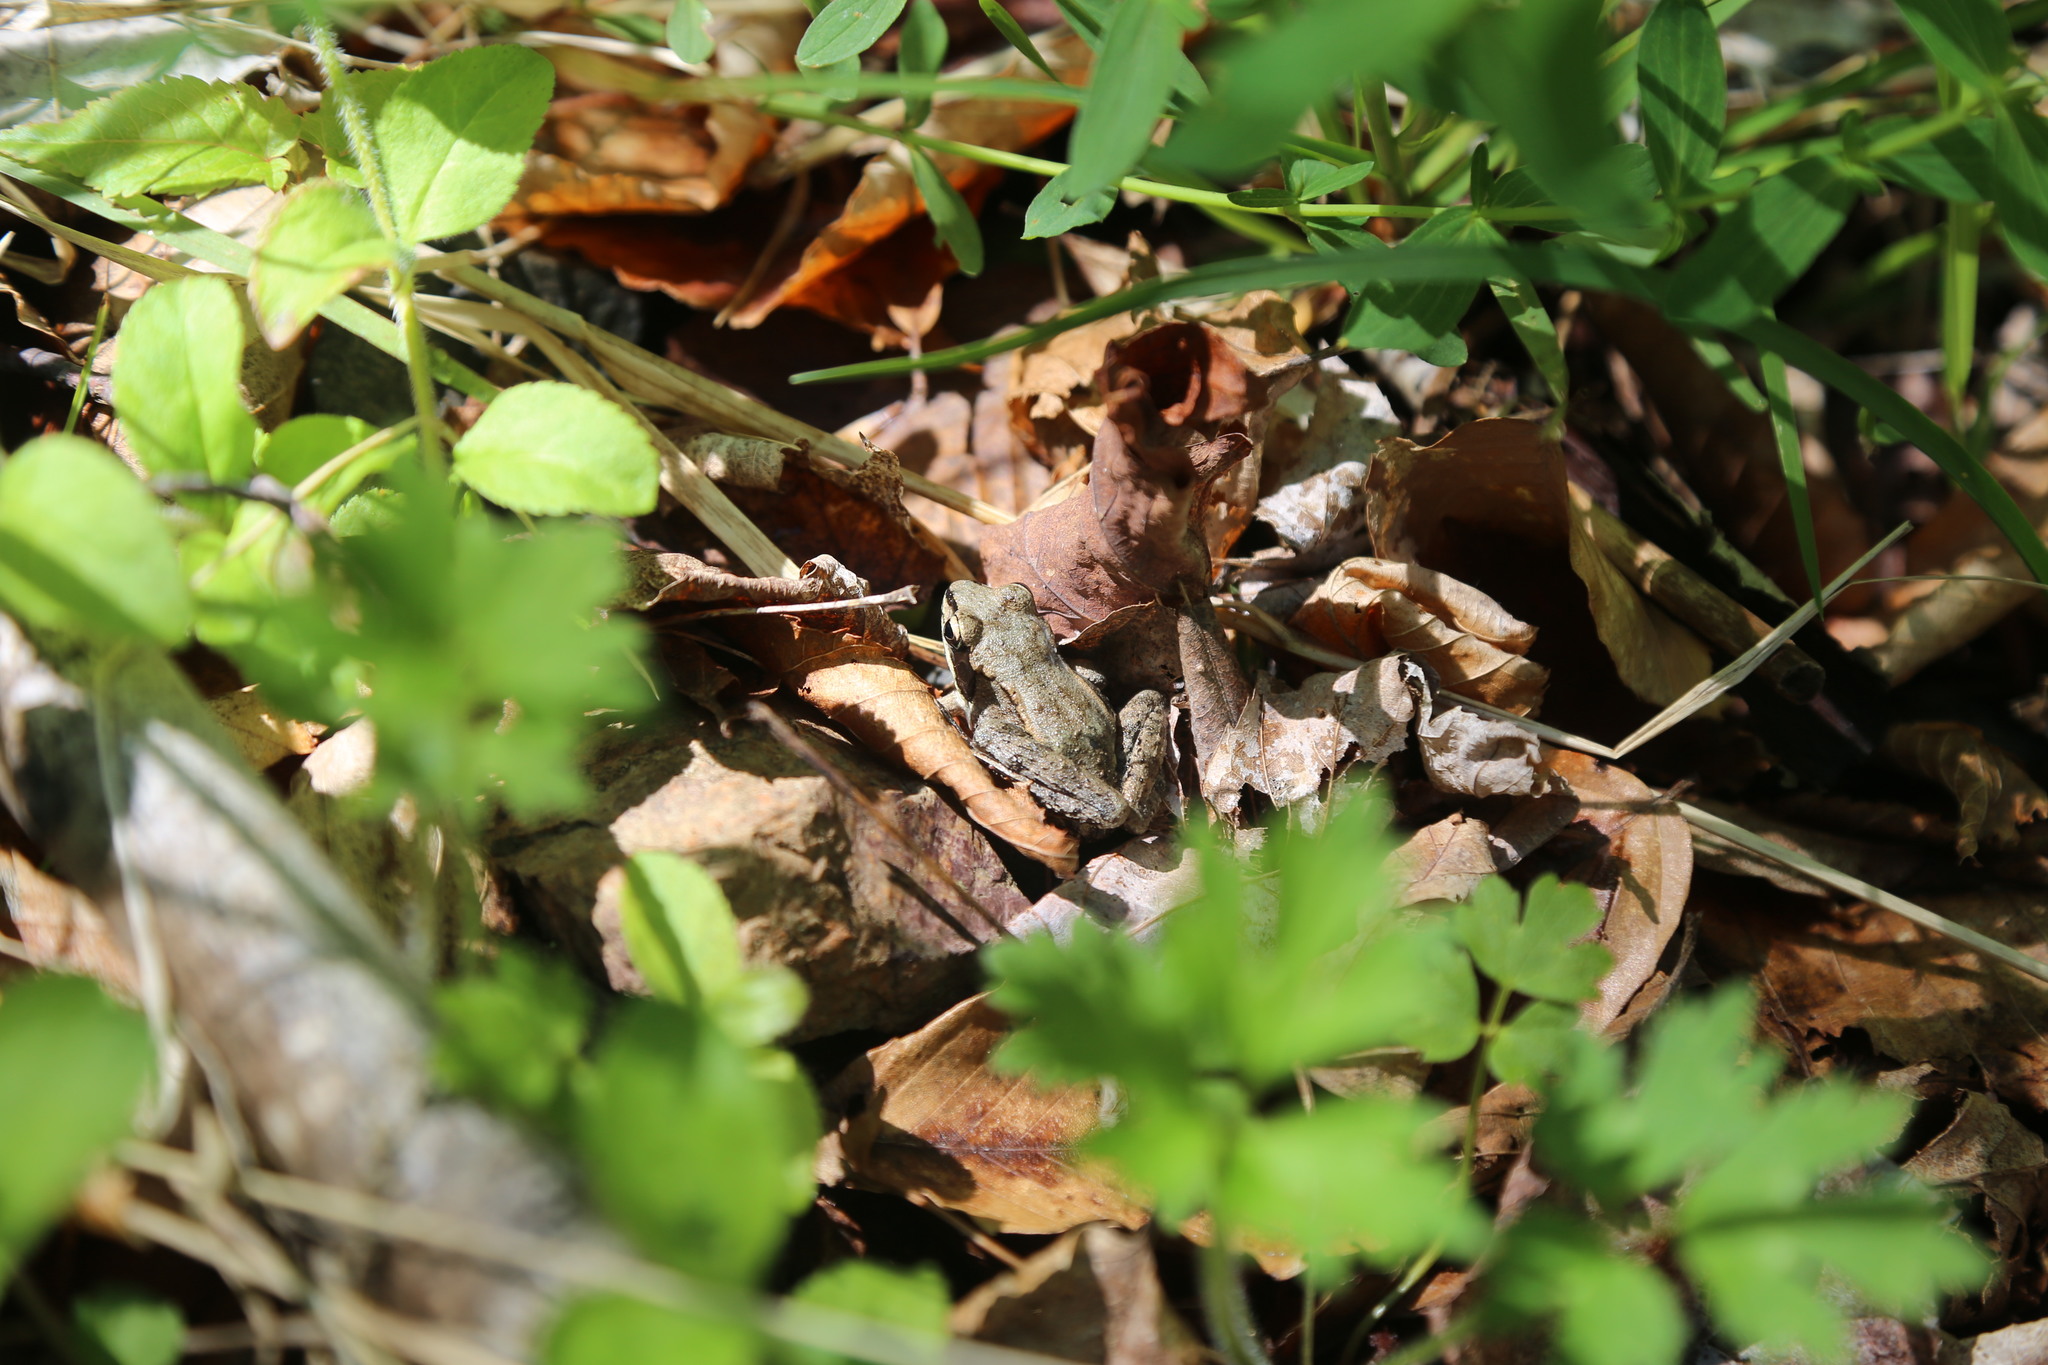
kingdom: Animalia
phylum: Chordata
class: Amphibia
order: Anura
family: Ranidae
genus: Lithobates
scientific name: Lithobates sylvaticus
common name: Wood frog
